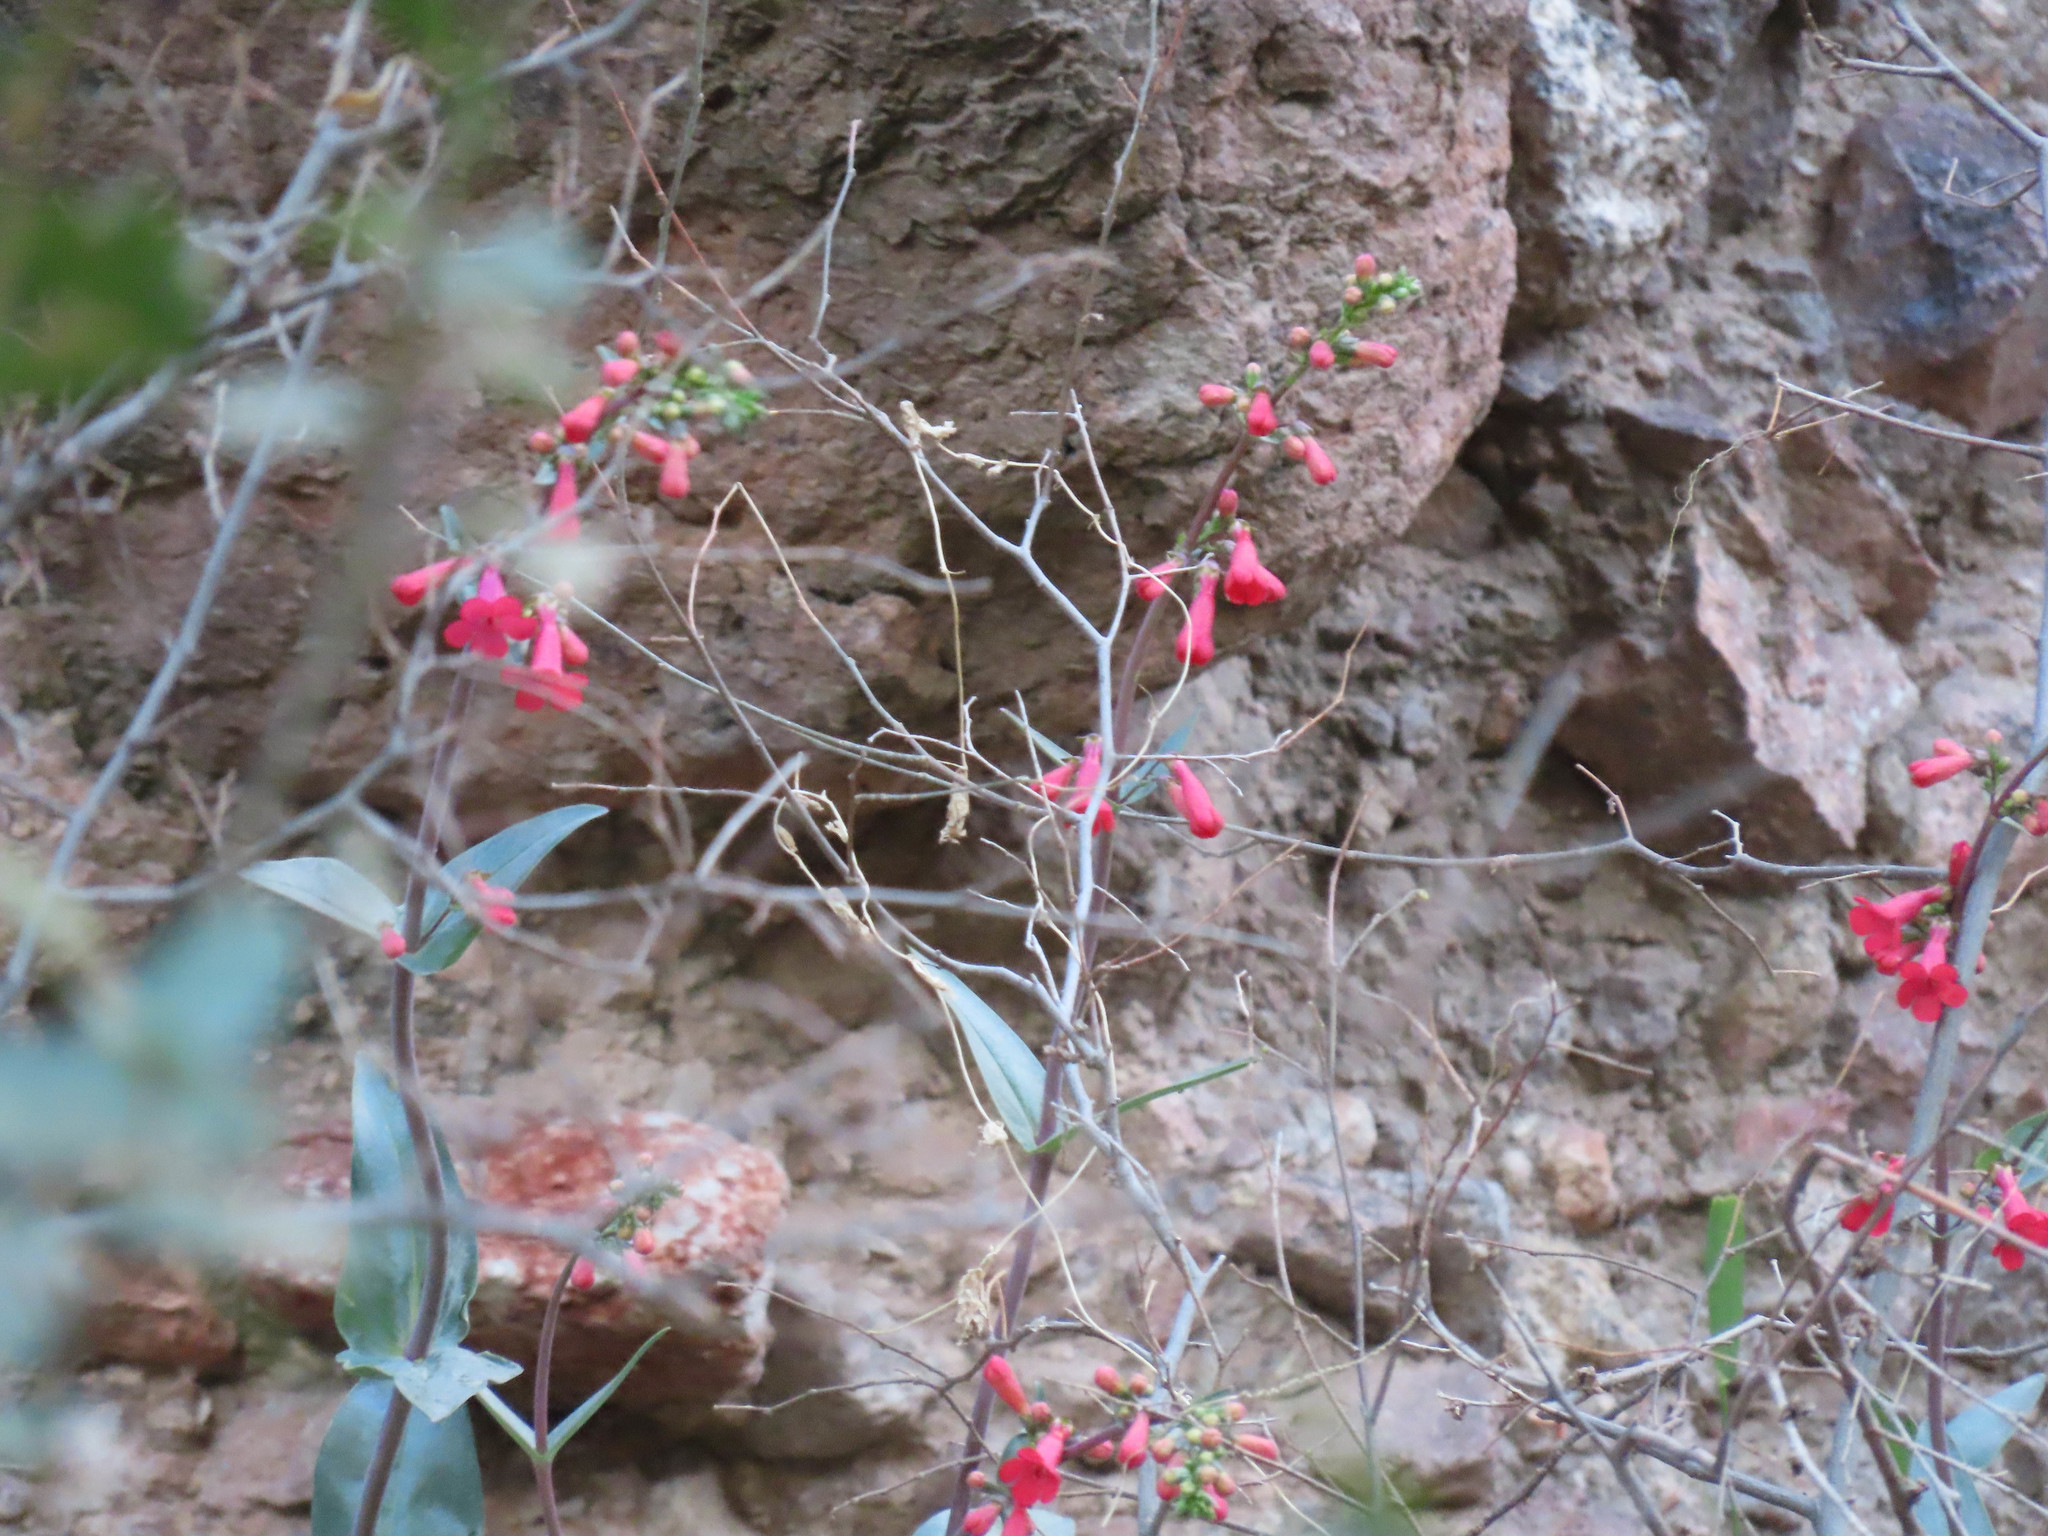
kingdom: Plantae
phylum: Tracheophyta
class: Magnoliopsida
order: Lamiales
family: Plantaginaceae
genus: Penstemon
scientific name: Penstemon superbus
